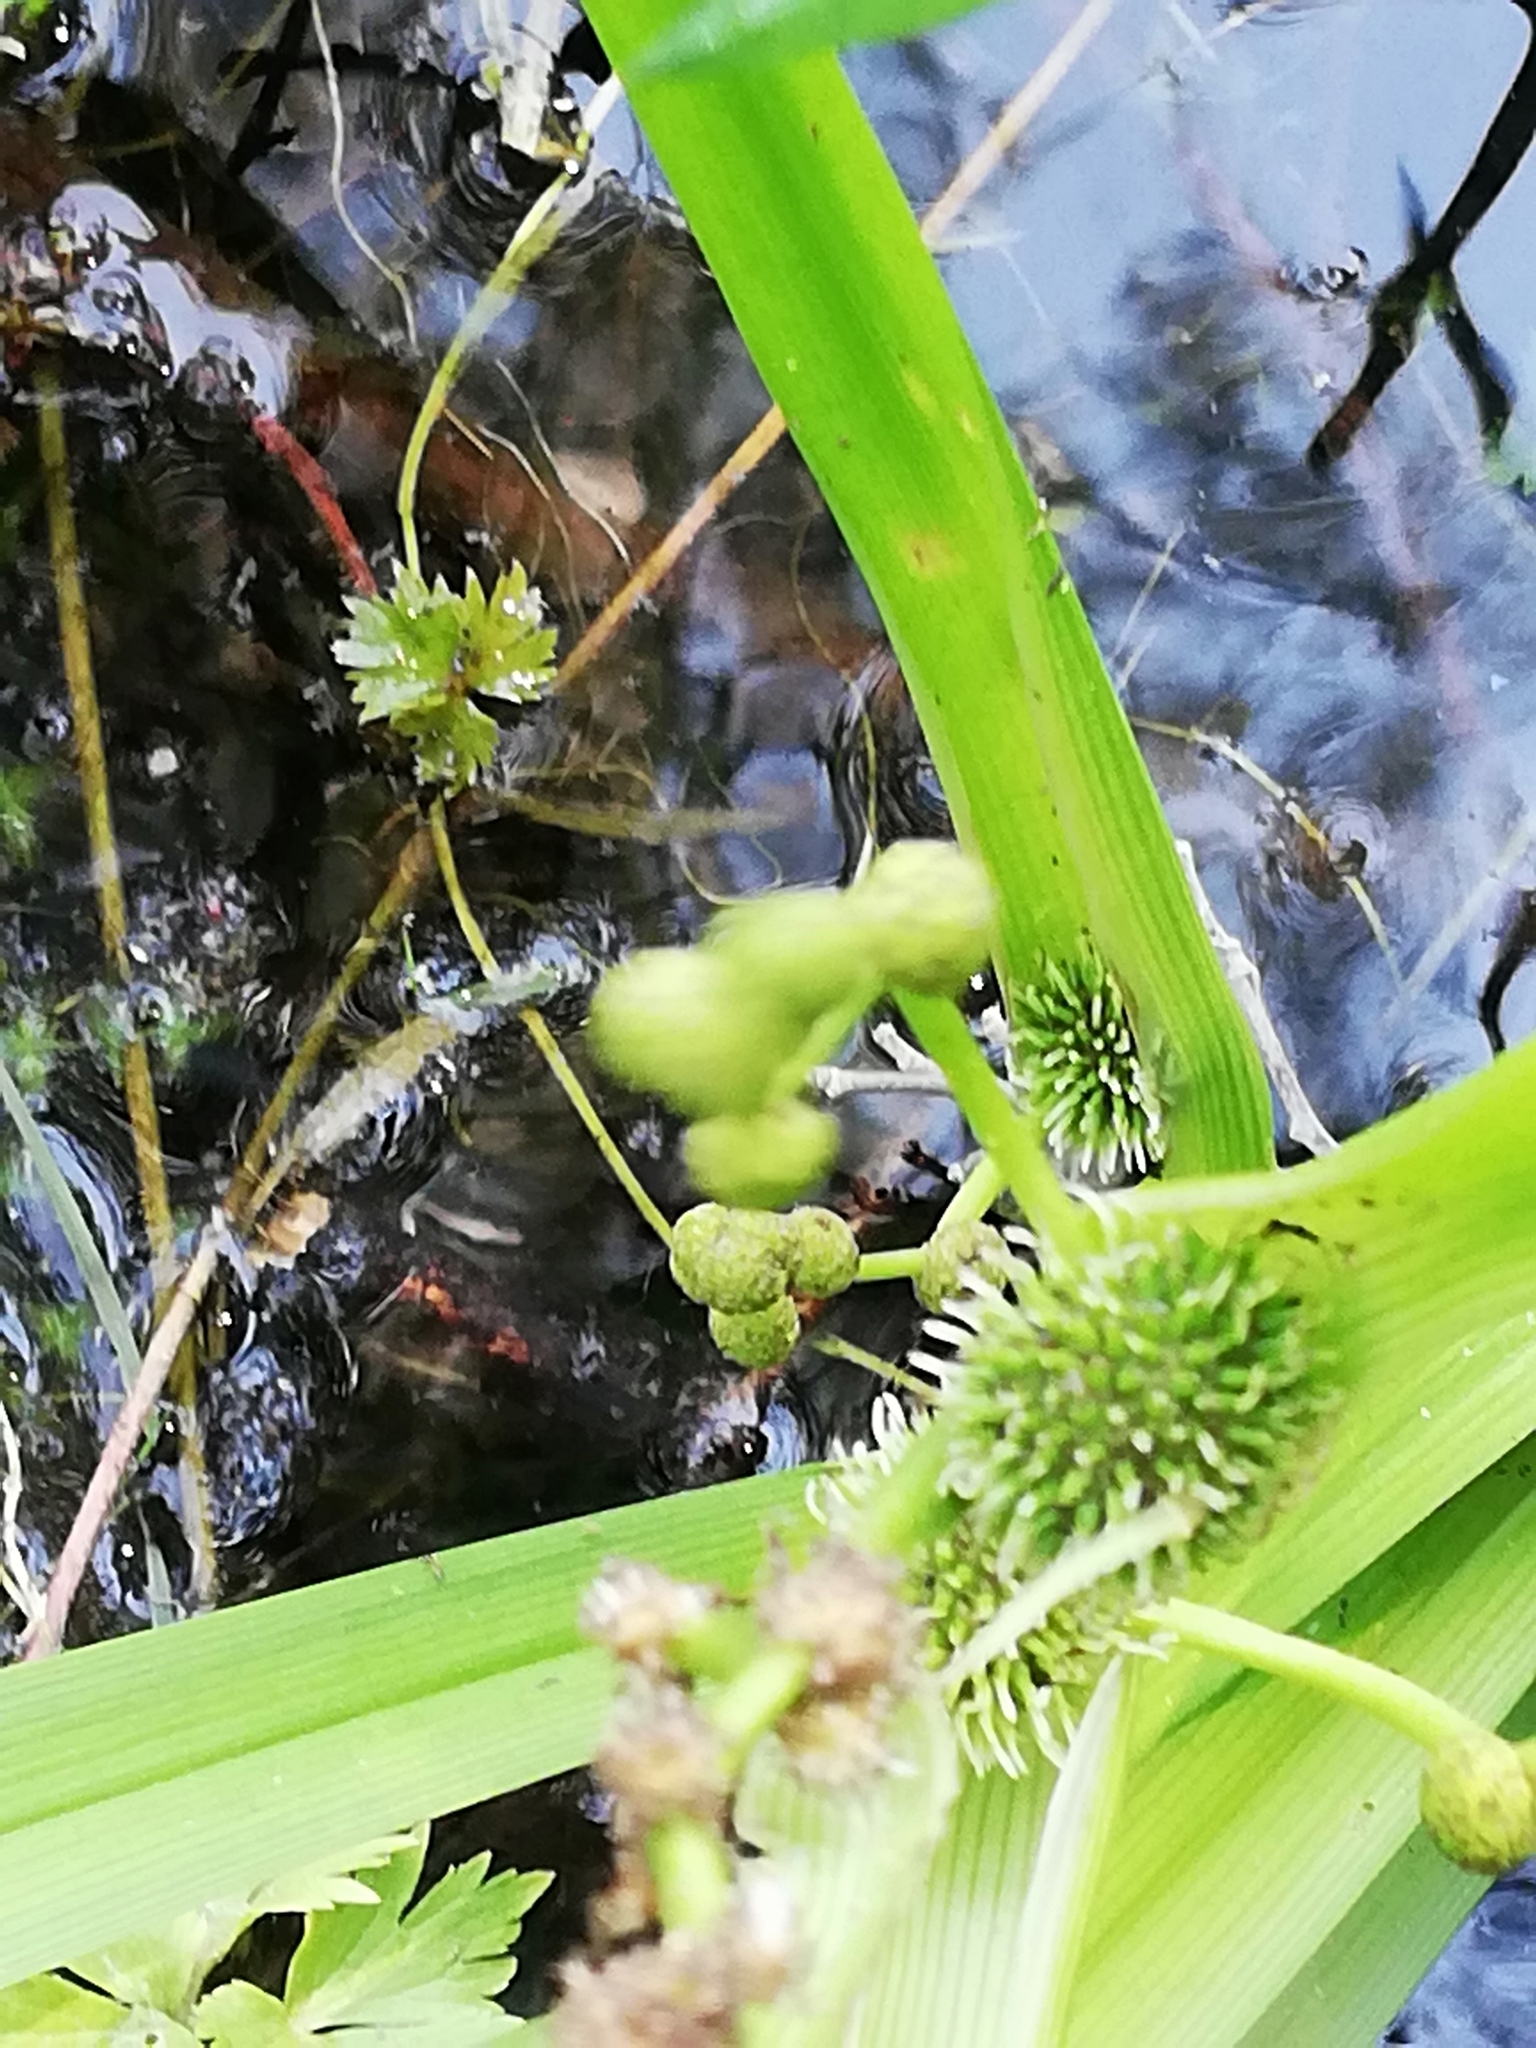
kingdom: Plantae
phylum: Tracheophyta
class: Liliopsida
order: Poales
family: Typhaceae
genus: Sparganium
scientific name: Sparganium erectum
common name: Branched bur-reed
